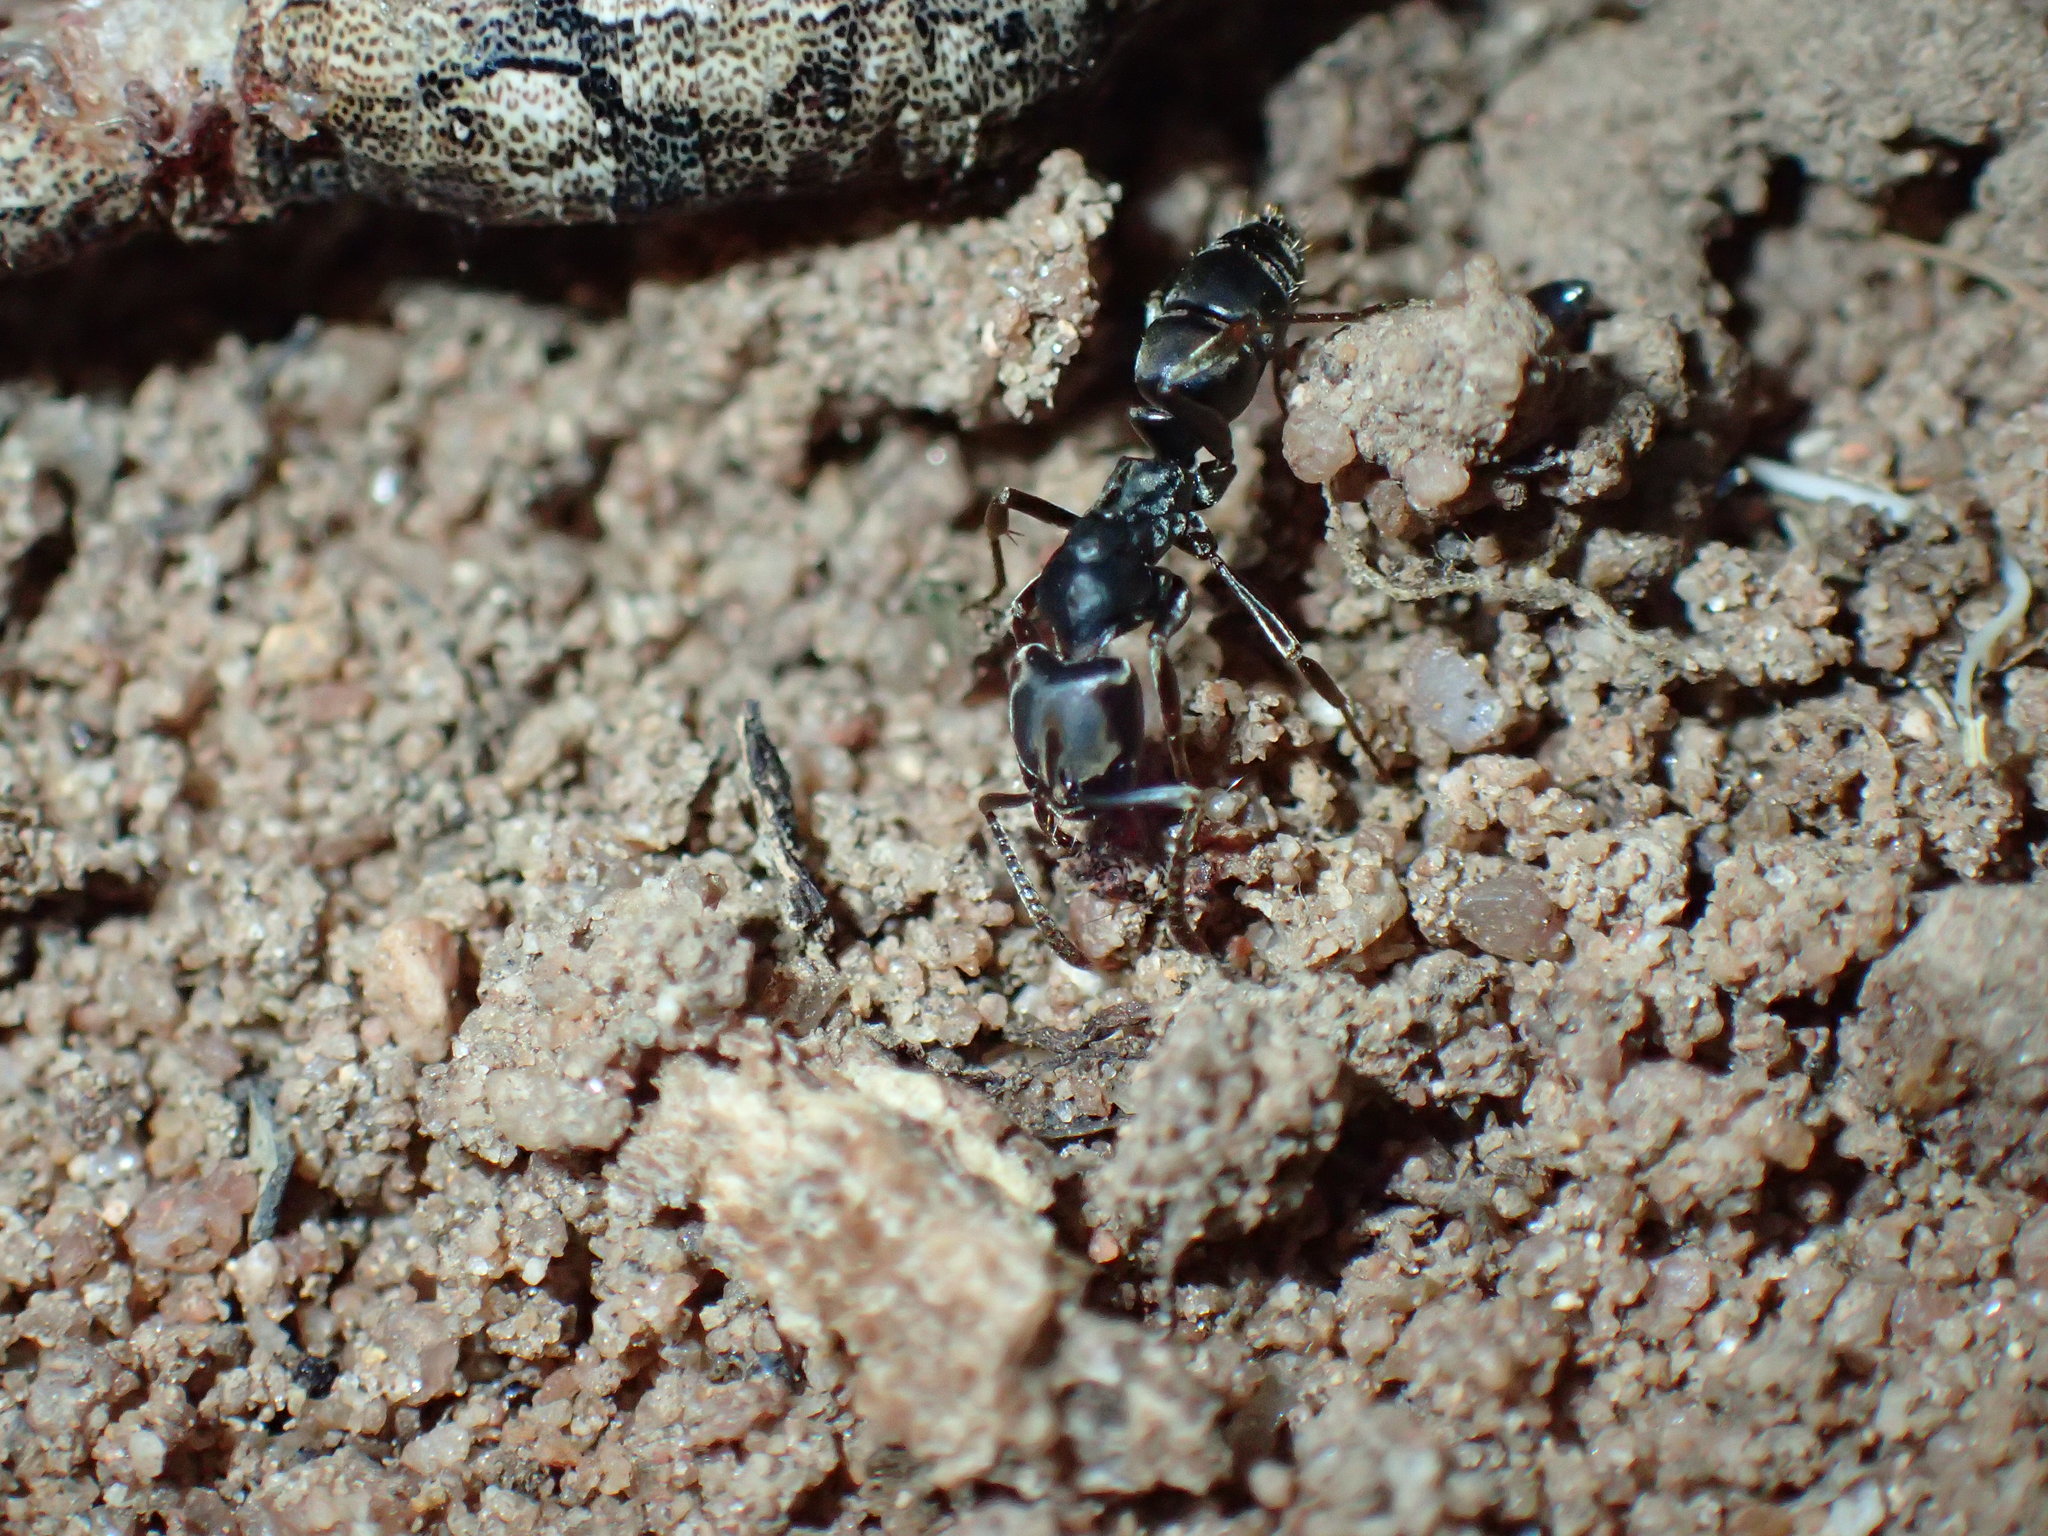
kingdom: Animalia
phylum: Arthropoda
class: Insecta
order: Hymenoptera
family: Formicidae
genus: Mesoponera
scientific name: Mesoponera caffraria
